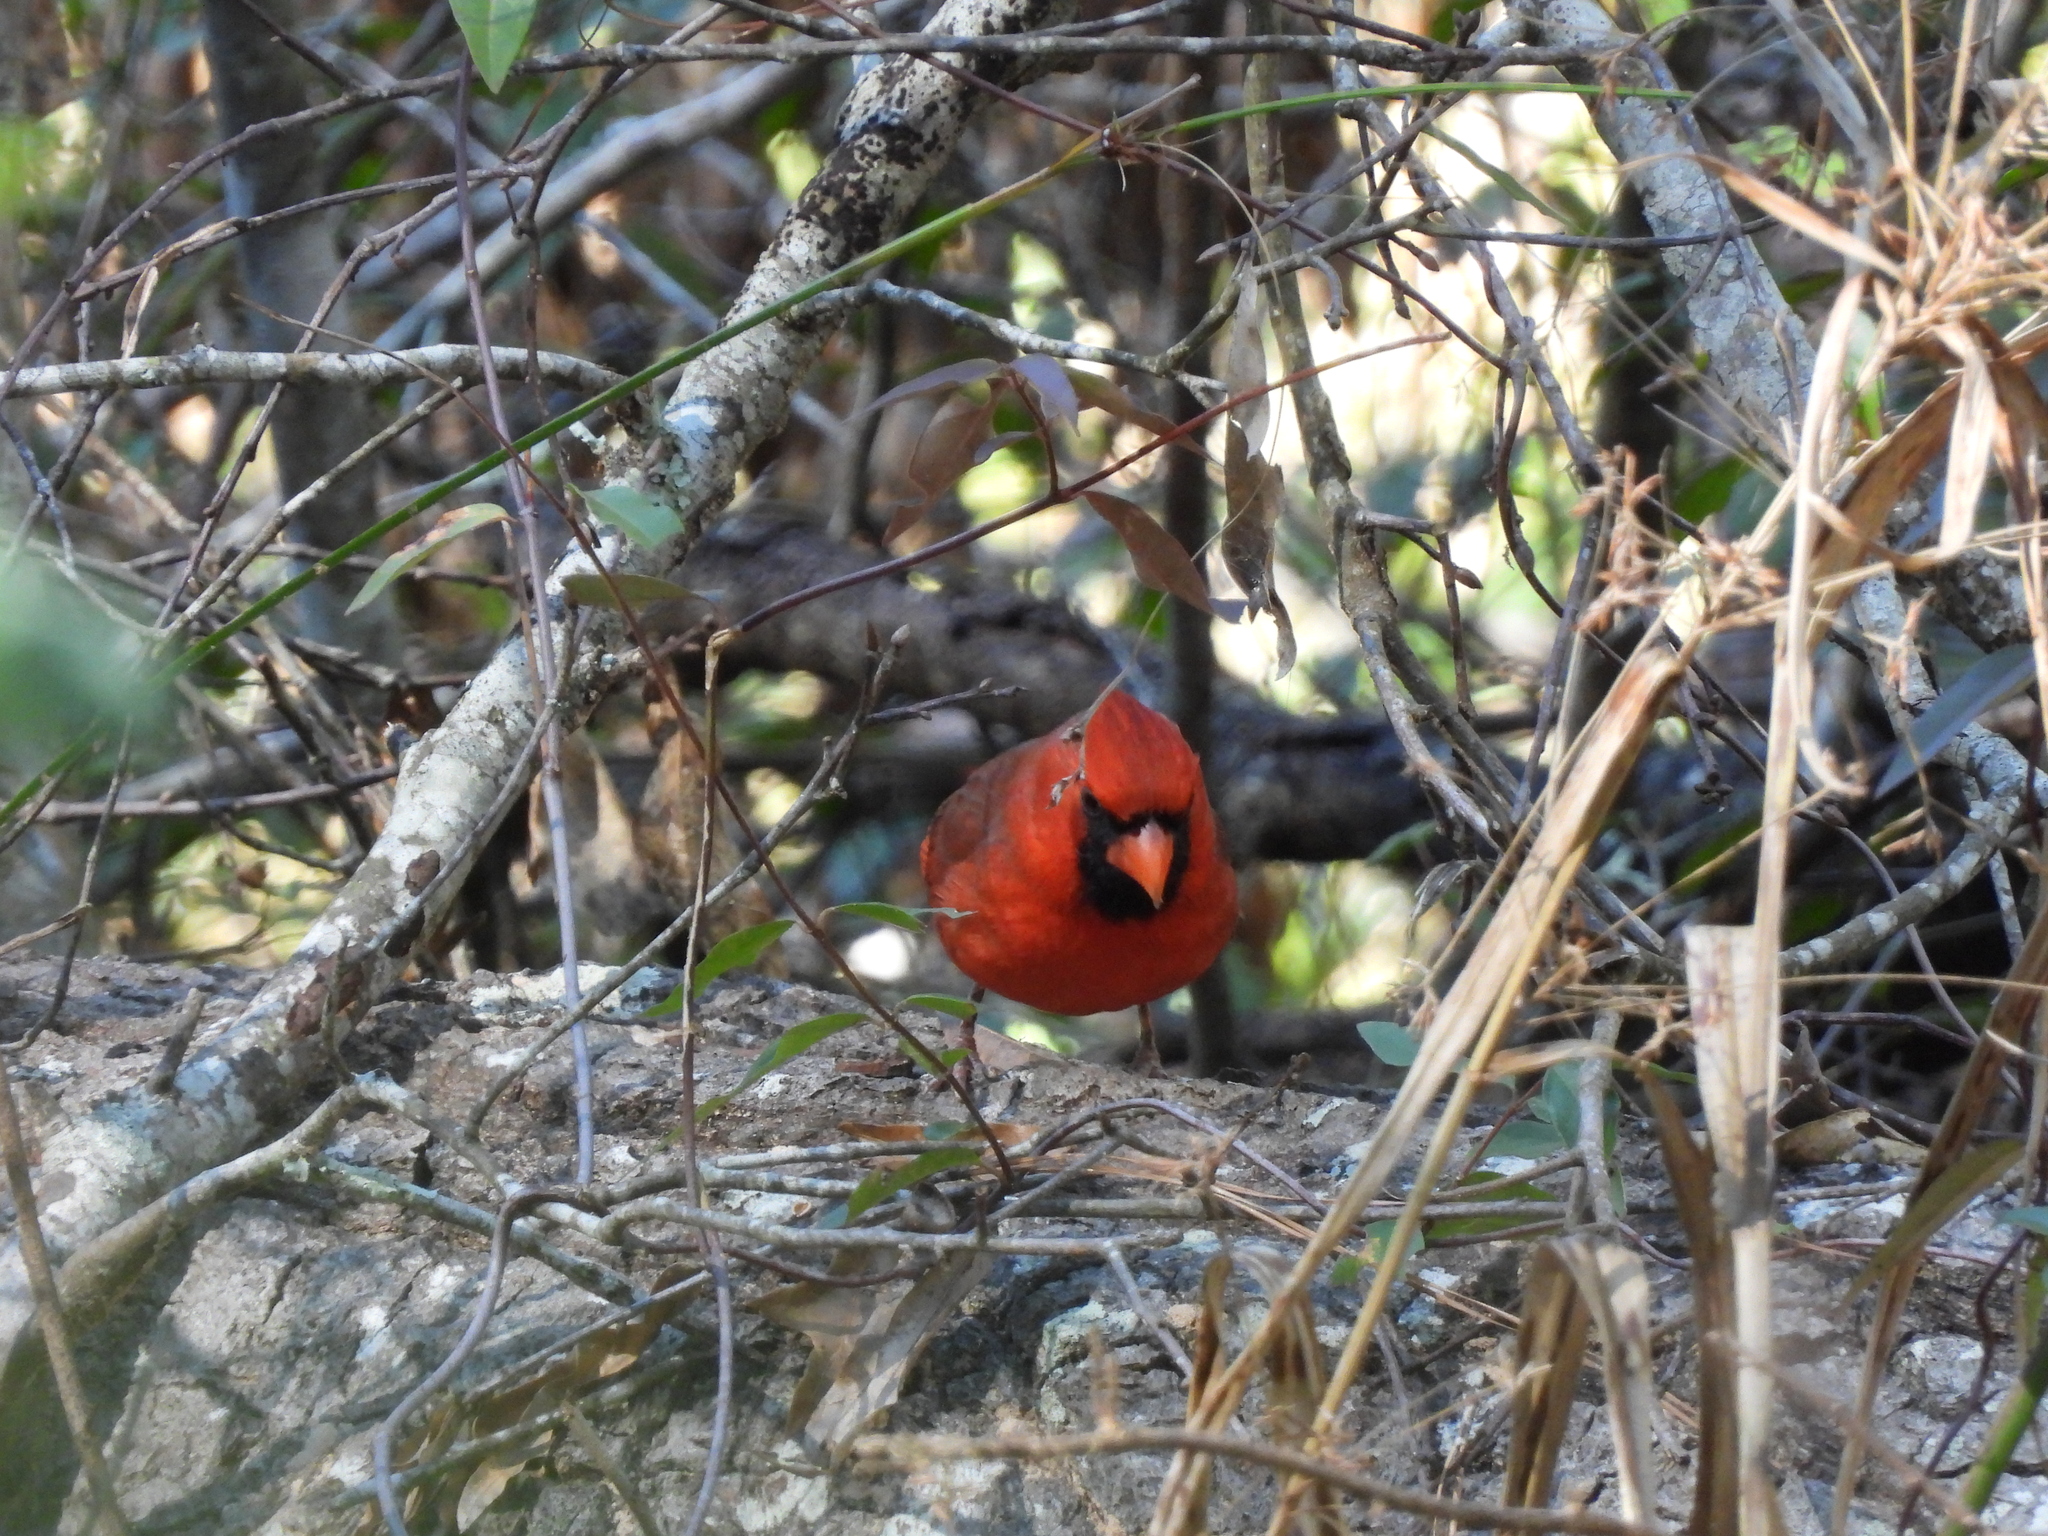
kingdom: Animalia
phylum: Chordata
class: Aves
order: Passeriformes
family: Cardinalidae
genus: Cardinalis
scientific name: Cardinalis cardinalis
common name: Northern cardinal
